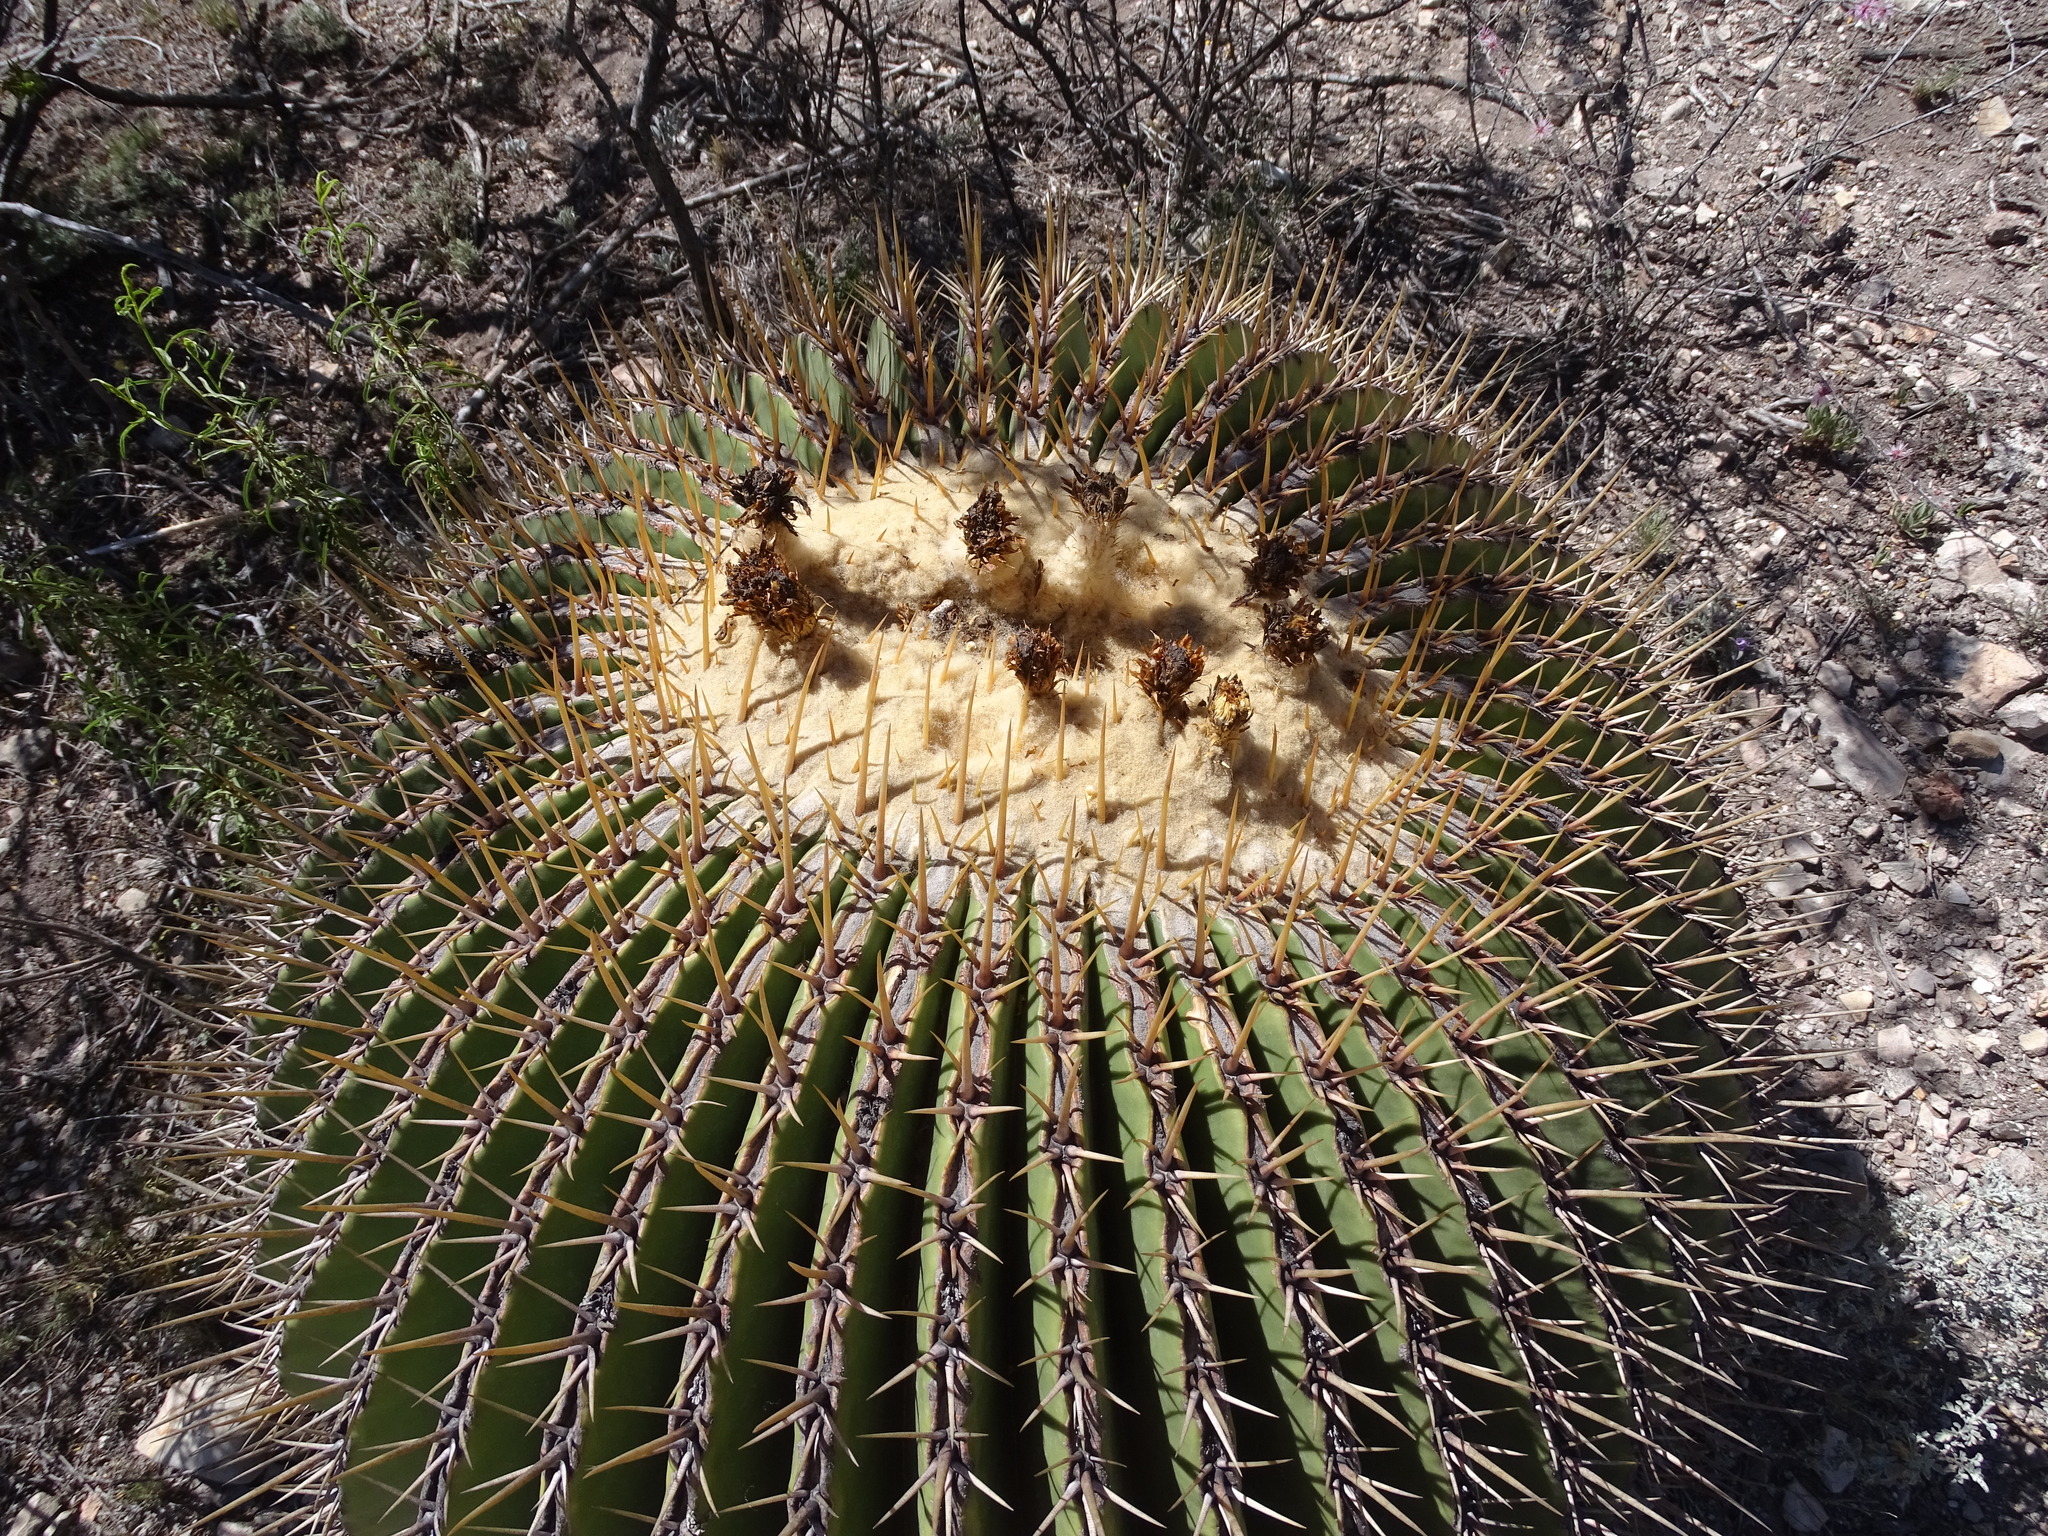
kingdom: Plantae
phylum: Tracheophyta
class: Magnoliopsida
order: Caryophyllales
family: Cactaceae
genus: Echinocactus
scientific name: Echinocactus platyacanthus
